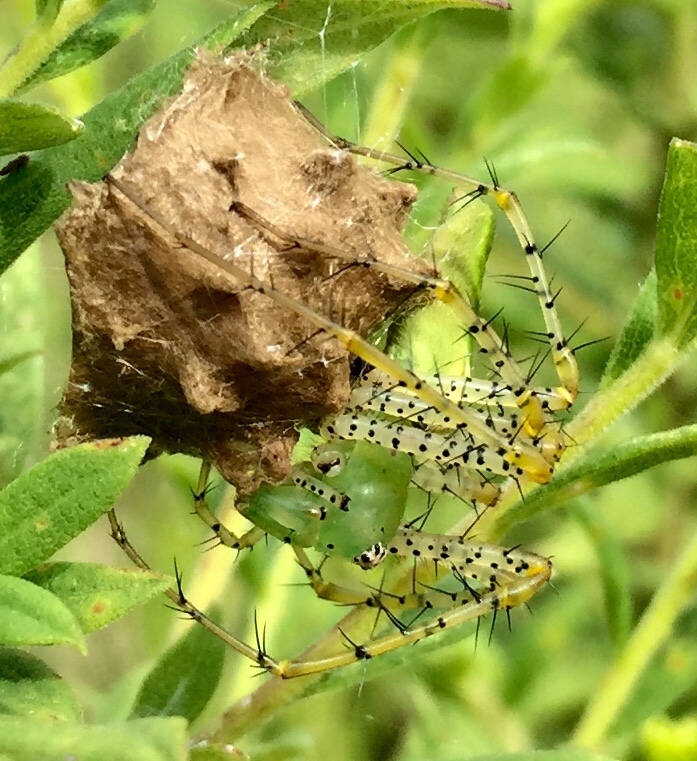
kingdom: Animalia
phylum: Arthropoda
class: Arachnida
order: Araneae
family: Oxyopidae
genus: Peucetia
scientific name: Peucetia viridans
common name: Lynx spiders
